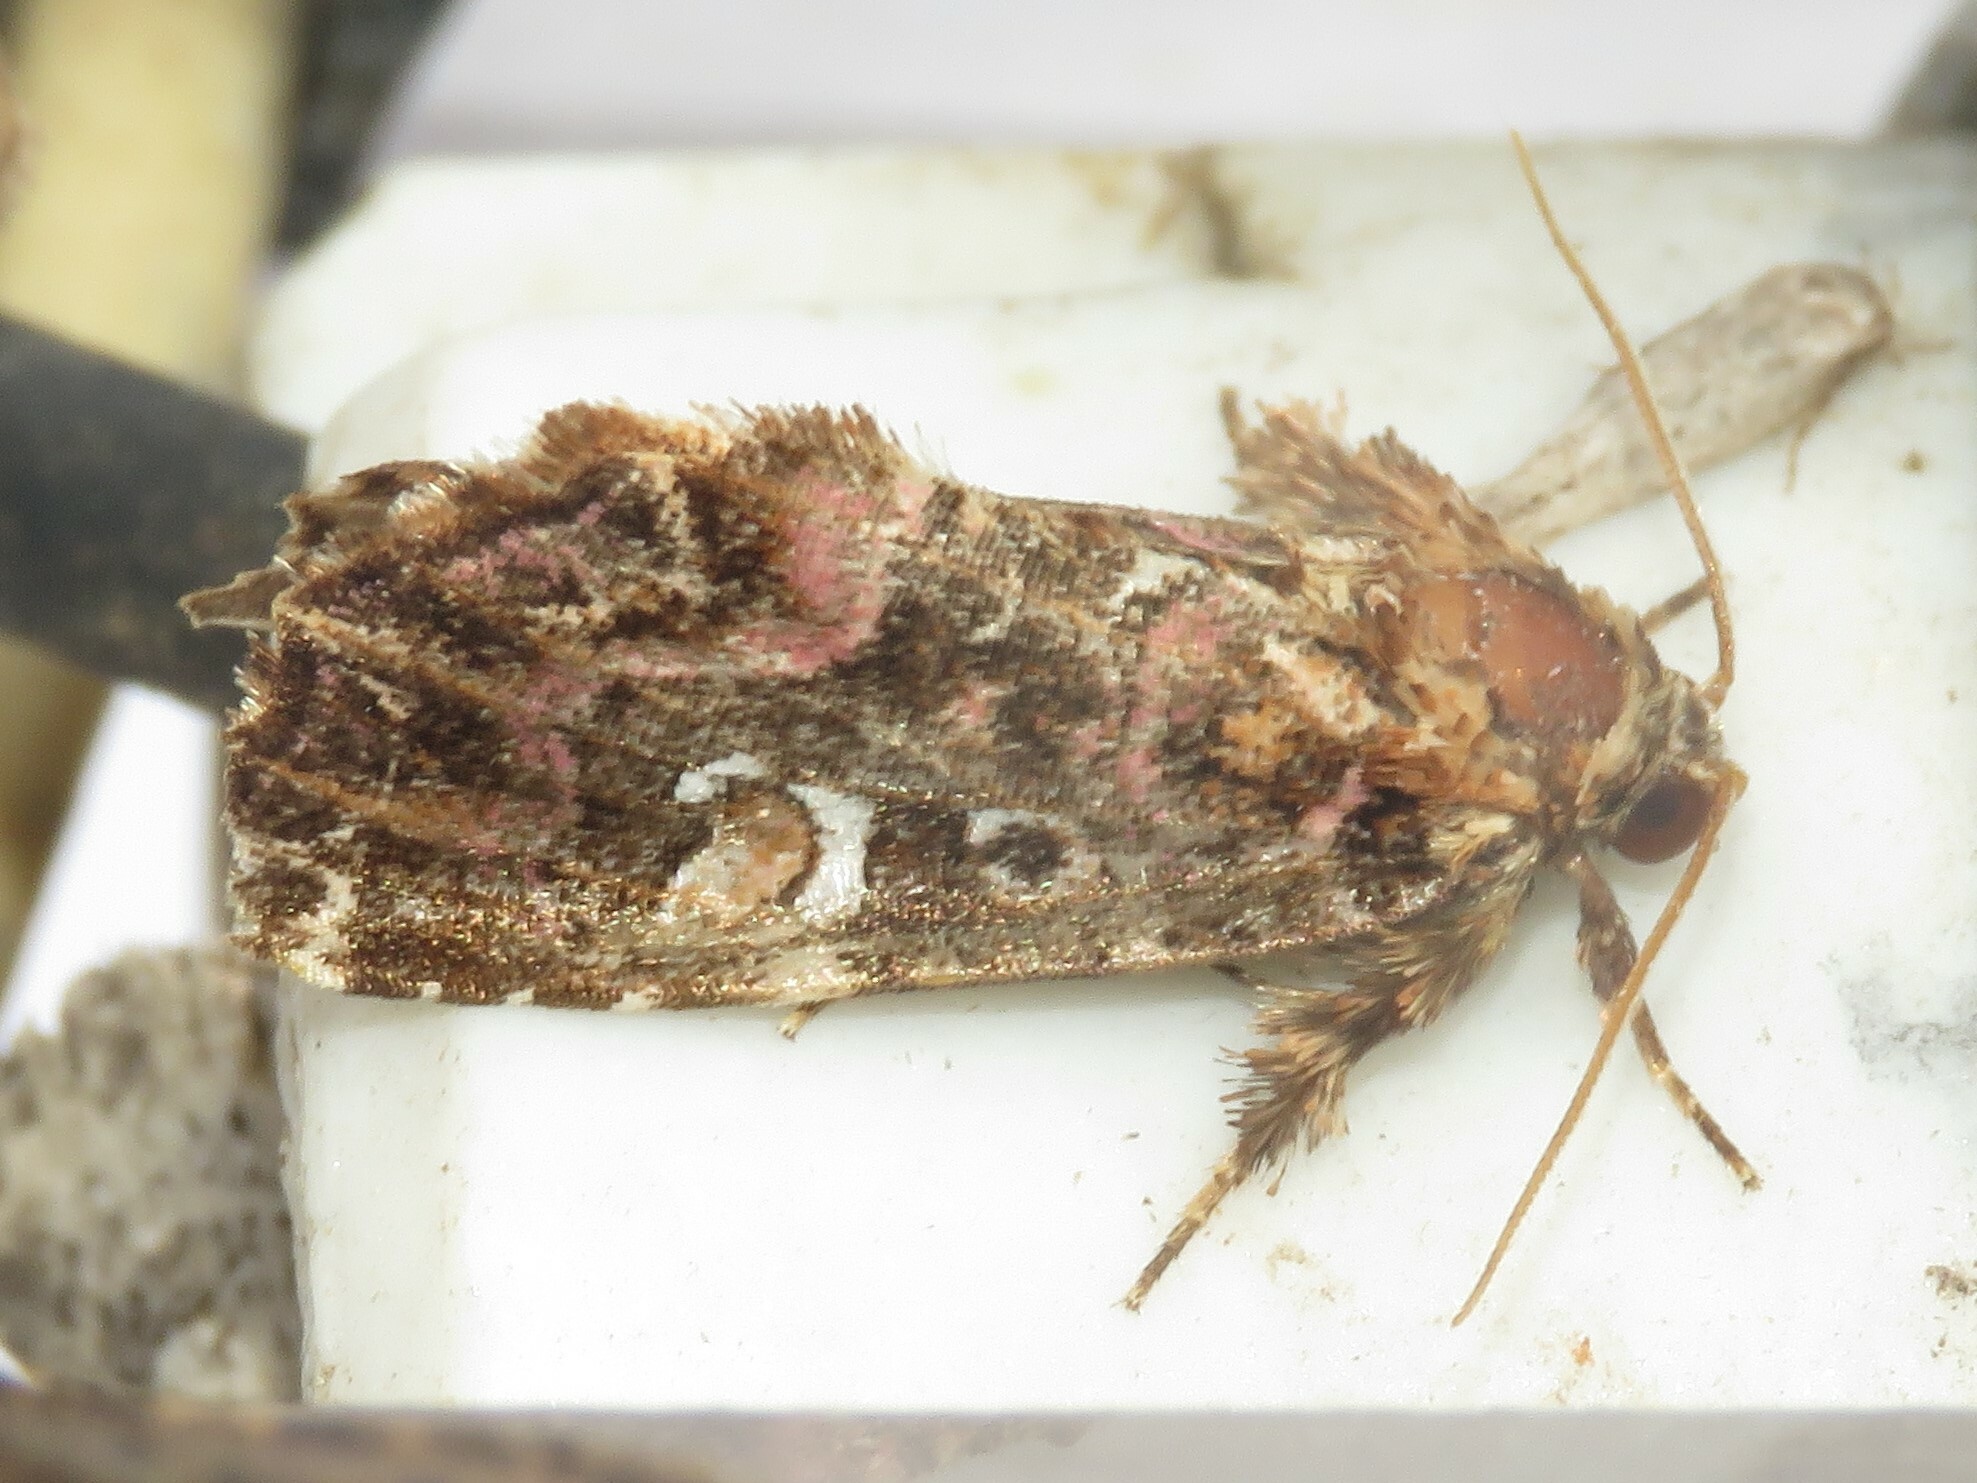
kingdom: Animalia
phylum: Arthropoda
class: Insecta
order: Lepidoptera
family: Noctuidae
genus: Callopistria
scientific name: Callopistria mollissima
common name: Pink-shaded fern moth
